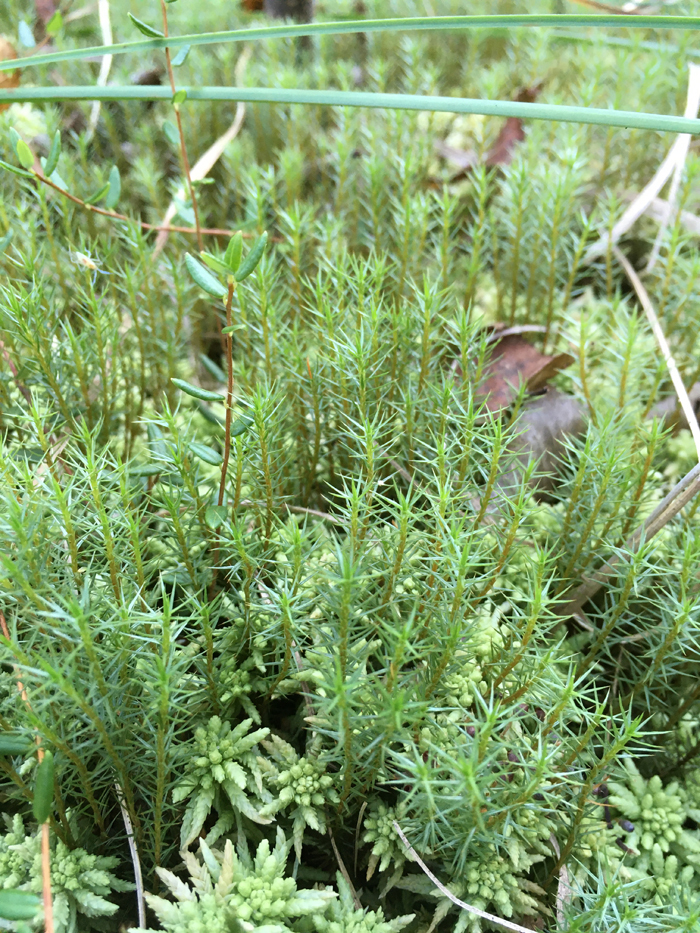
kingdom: Plantae
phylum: Bryophyta
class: Polytrichopsida
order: Polytrichales
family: Polytrichaceae
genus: Polytrichum
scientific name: Polytrichum commune
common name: Common haircap
